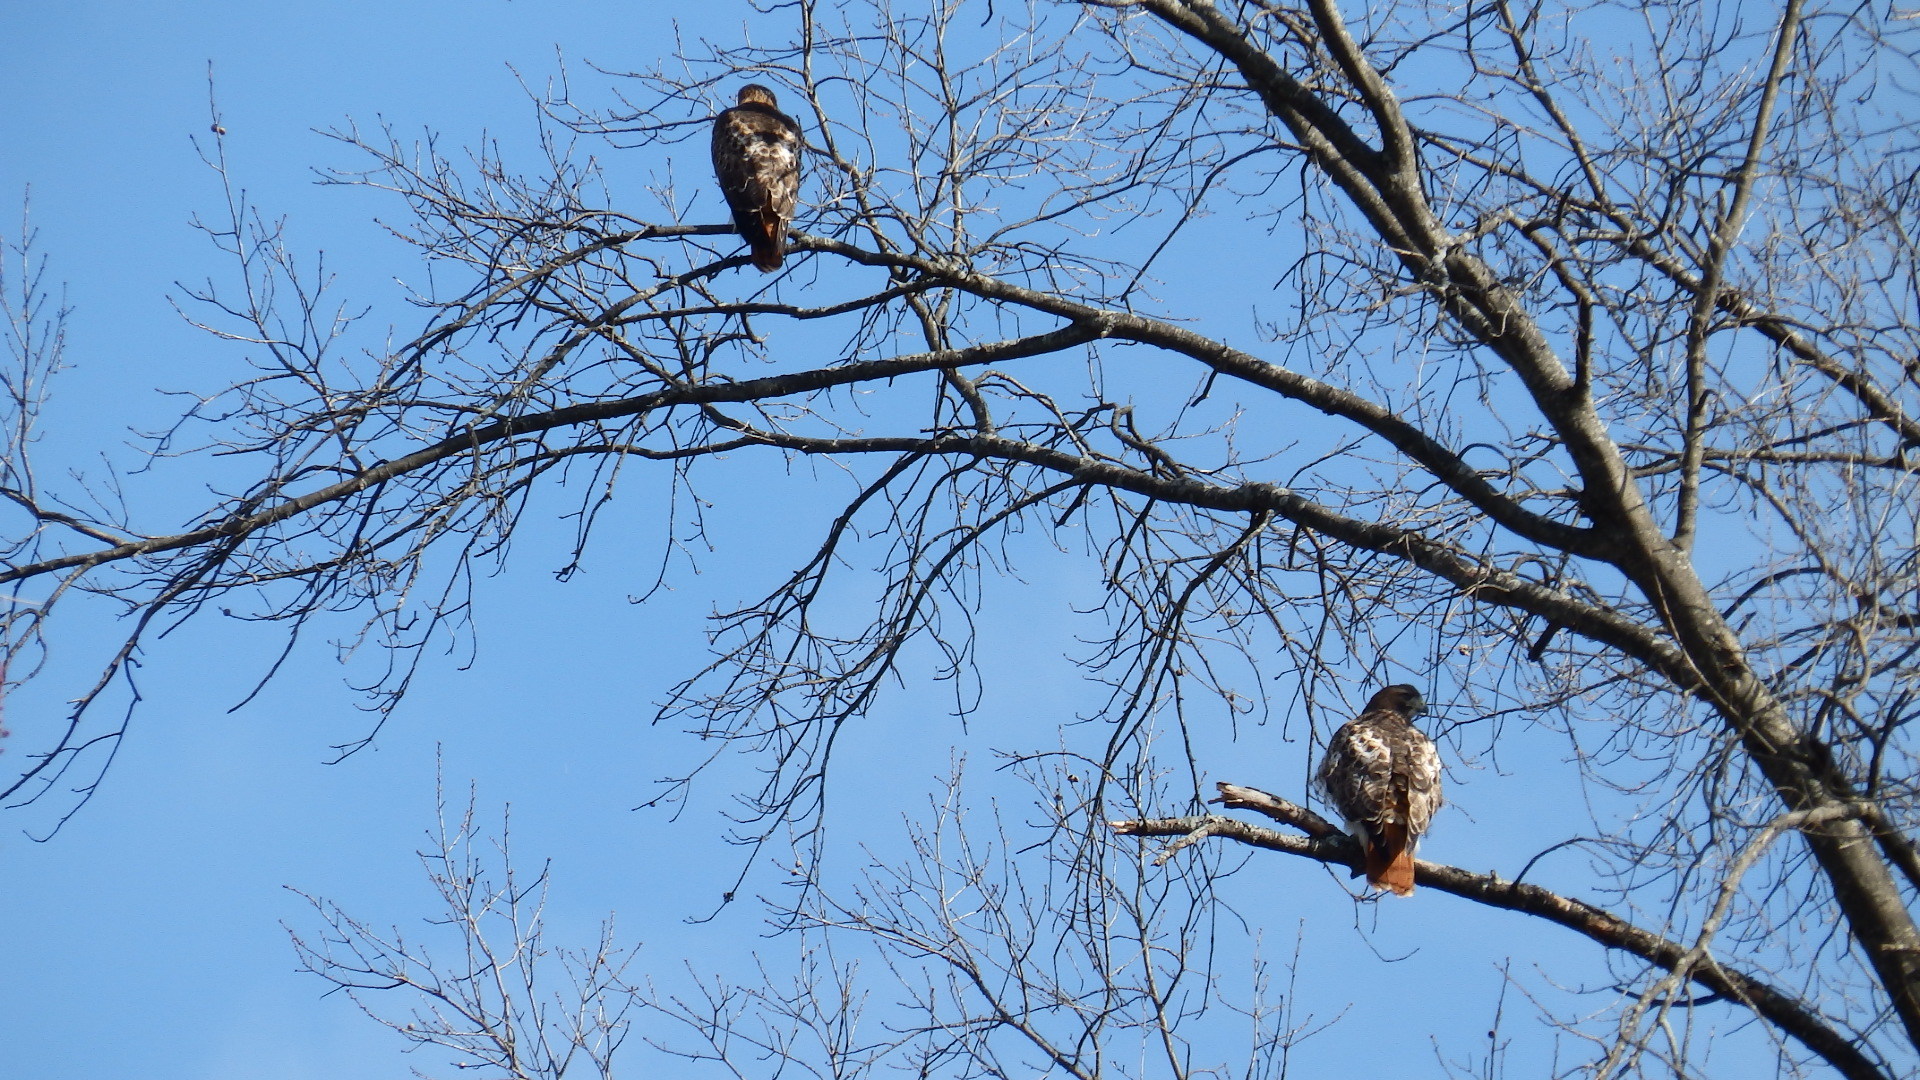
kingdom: Animalia
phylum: Chordata
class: Aves
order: Accipitriformes
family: Accipitridae
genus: Buteo
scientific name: Buteo jamaicensis
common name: Red-tailed hawk
